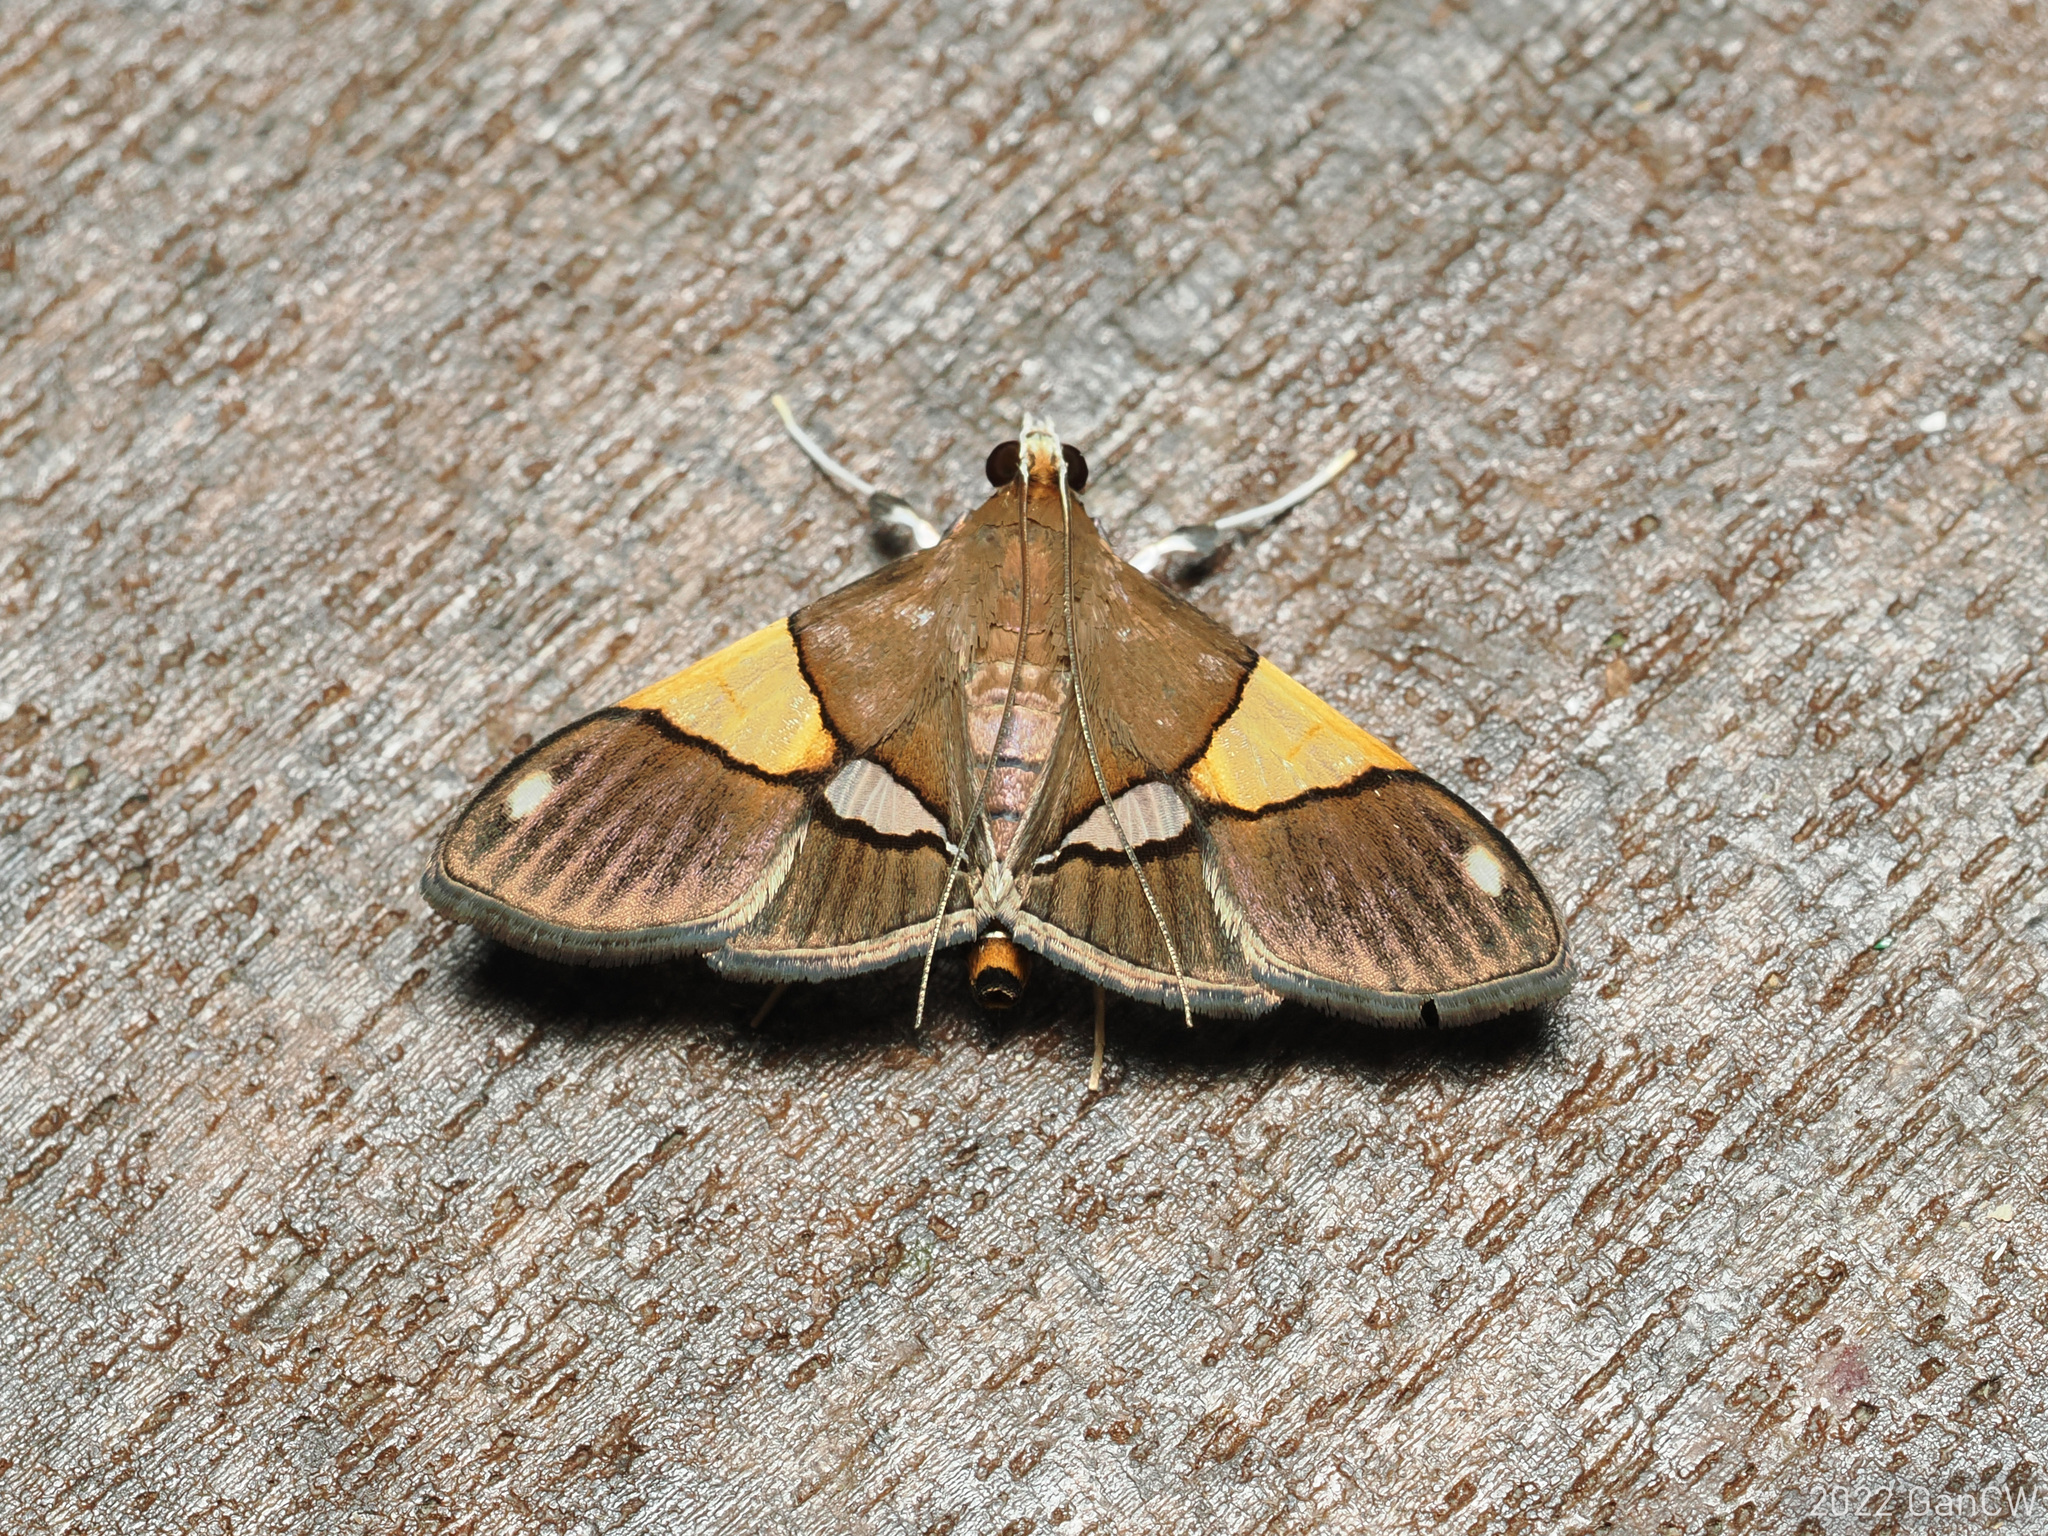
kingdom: Animalia
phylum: Arthropoda
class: Insecta
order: Lepidoptera
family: Crambidae
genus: Heterocnephes
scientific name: Heterocnephes scapulalis
